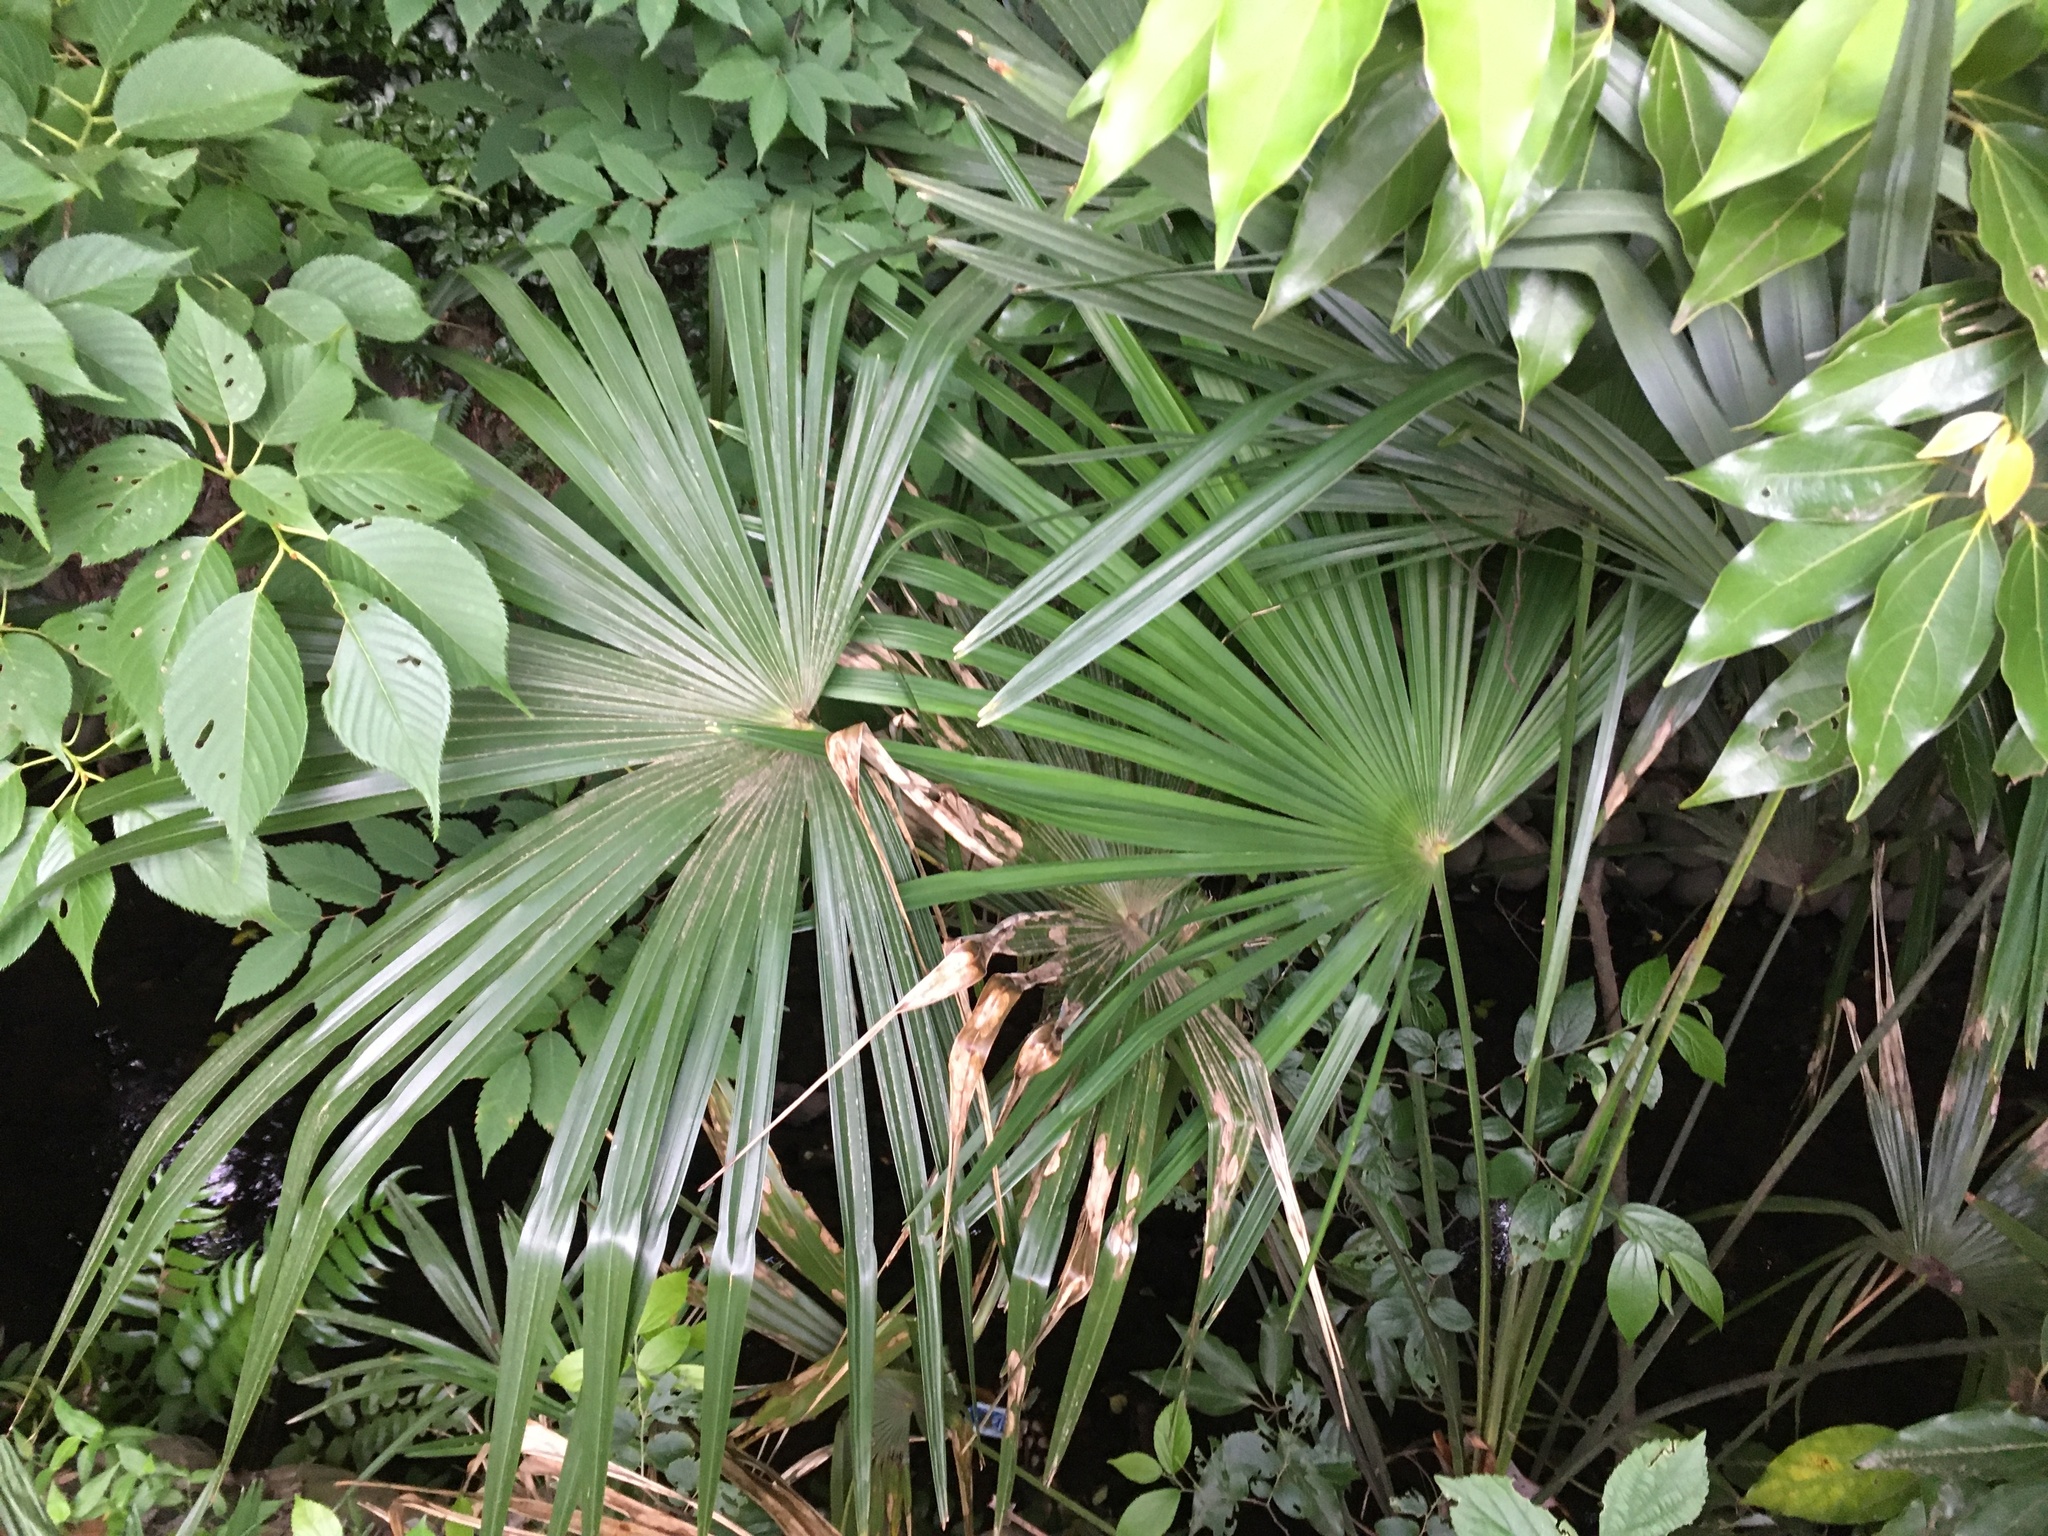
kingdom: Plantae
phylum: Tracheophyta
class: Liliopsida
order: Arecales
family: Arecaceae
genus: Trachycarpus
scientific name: Trachycarpus fortunei
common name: Chusan palm
